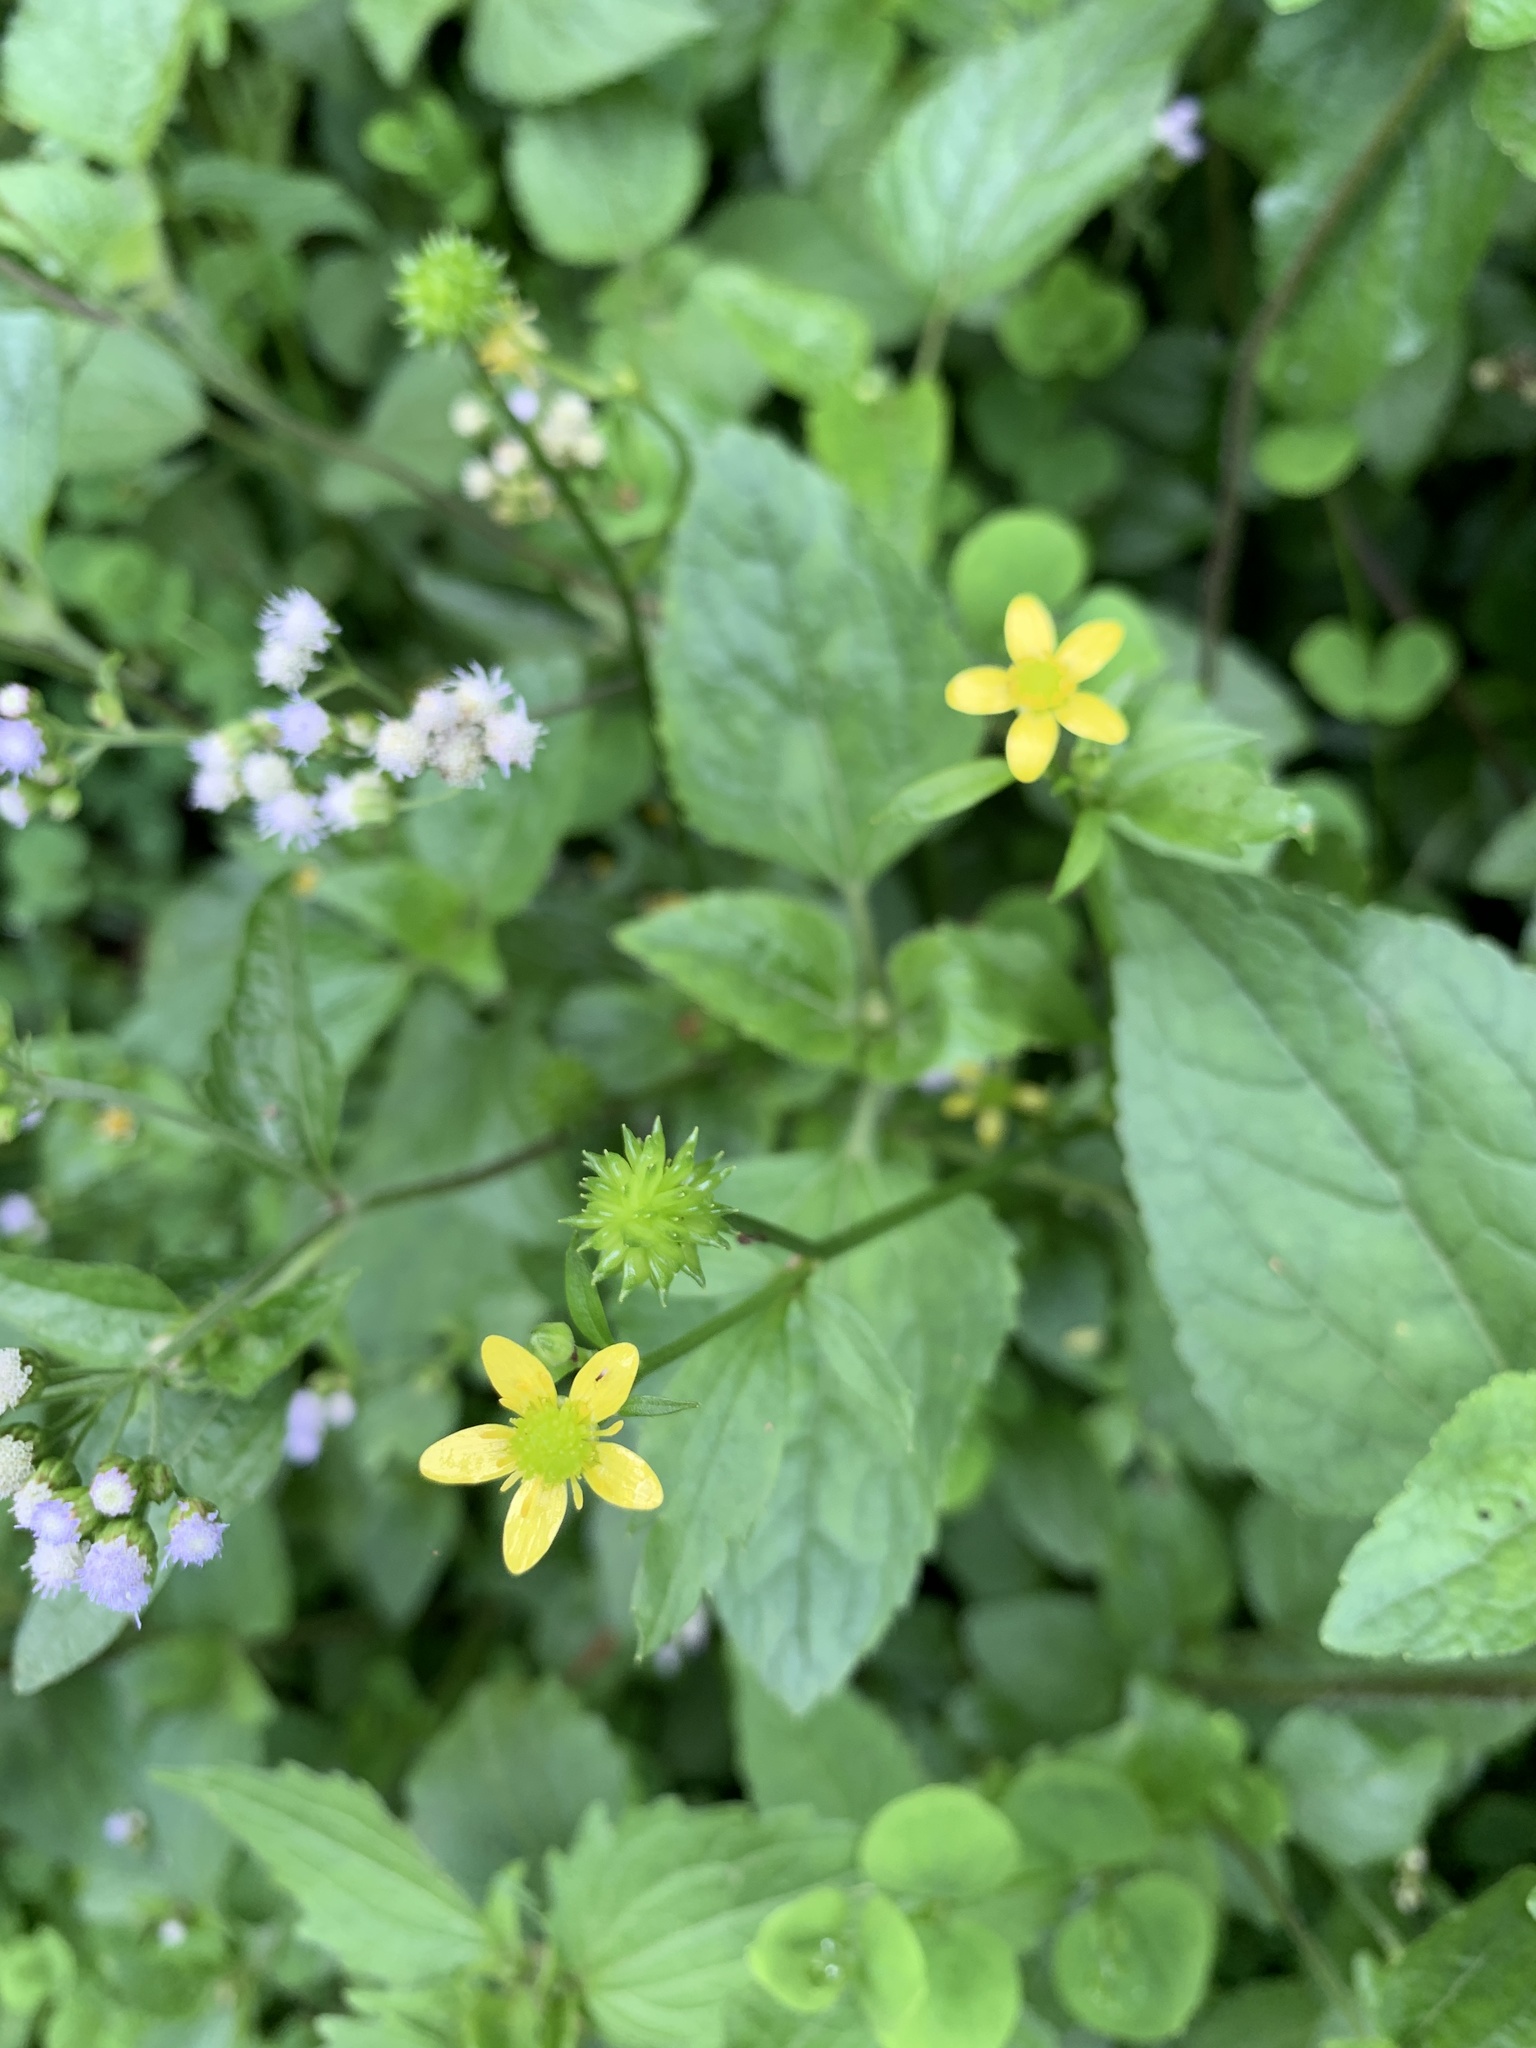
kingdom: Plantae
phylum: Tracheophyta
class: Magnoliopsida
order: Ranunculales
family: Ranunculaceae
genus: Ranunculus
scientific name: Ranunculus cantoniensis
